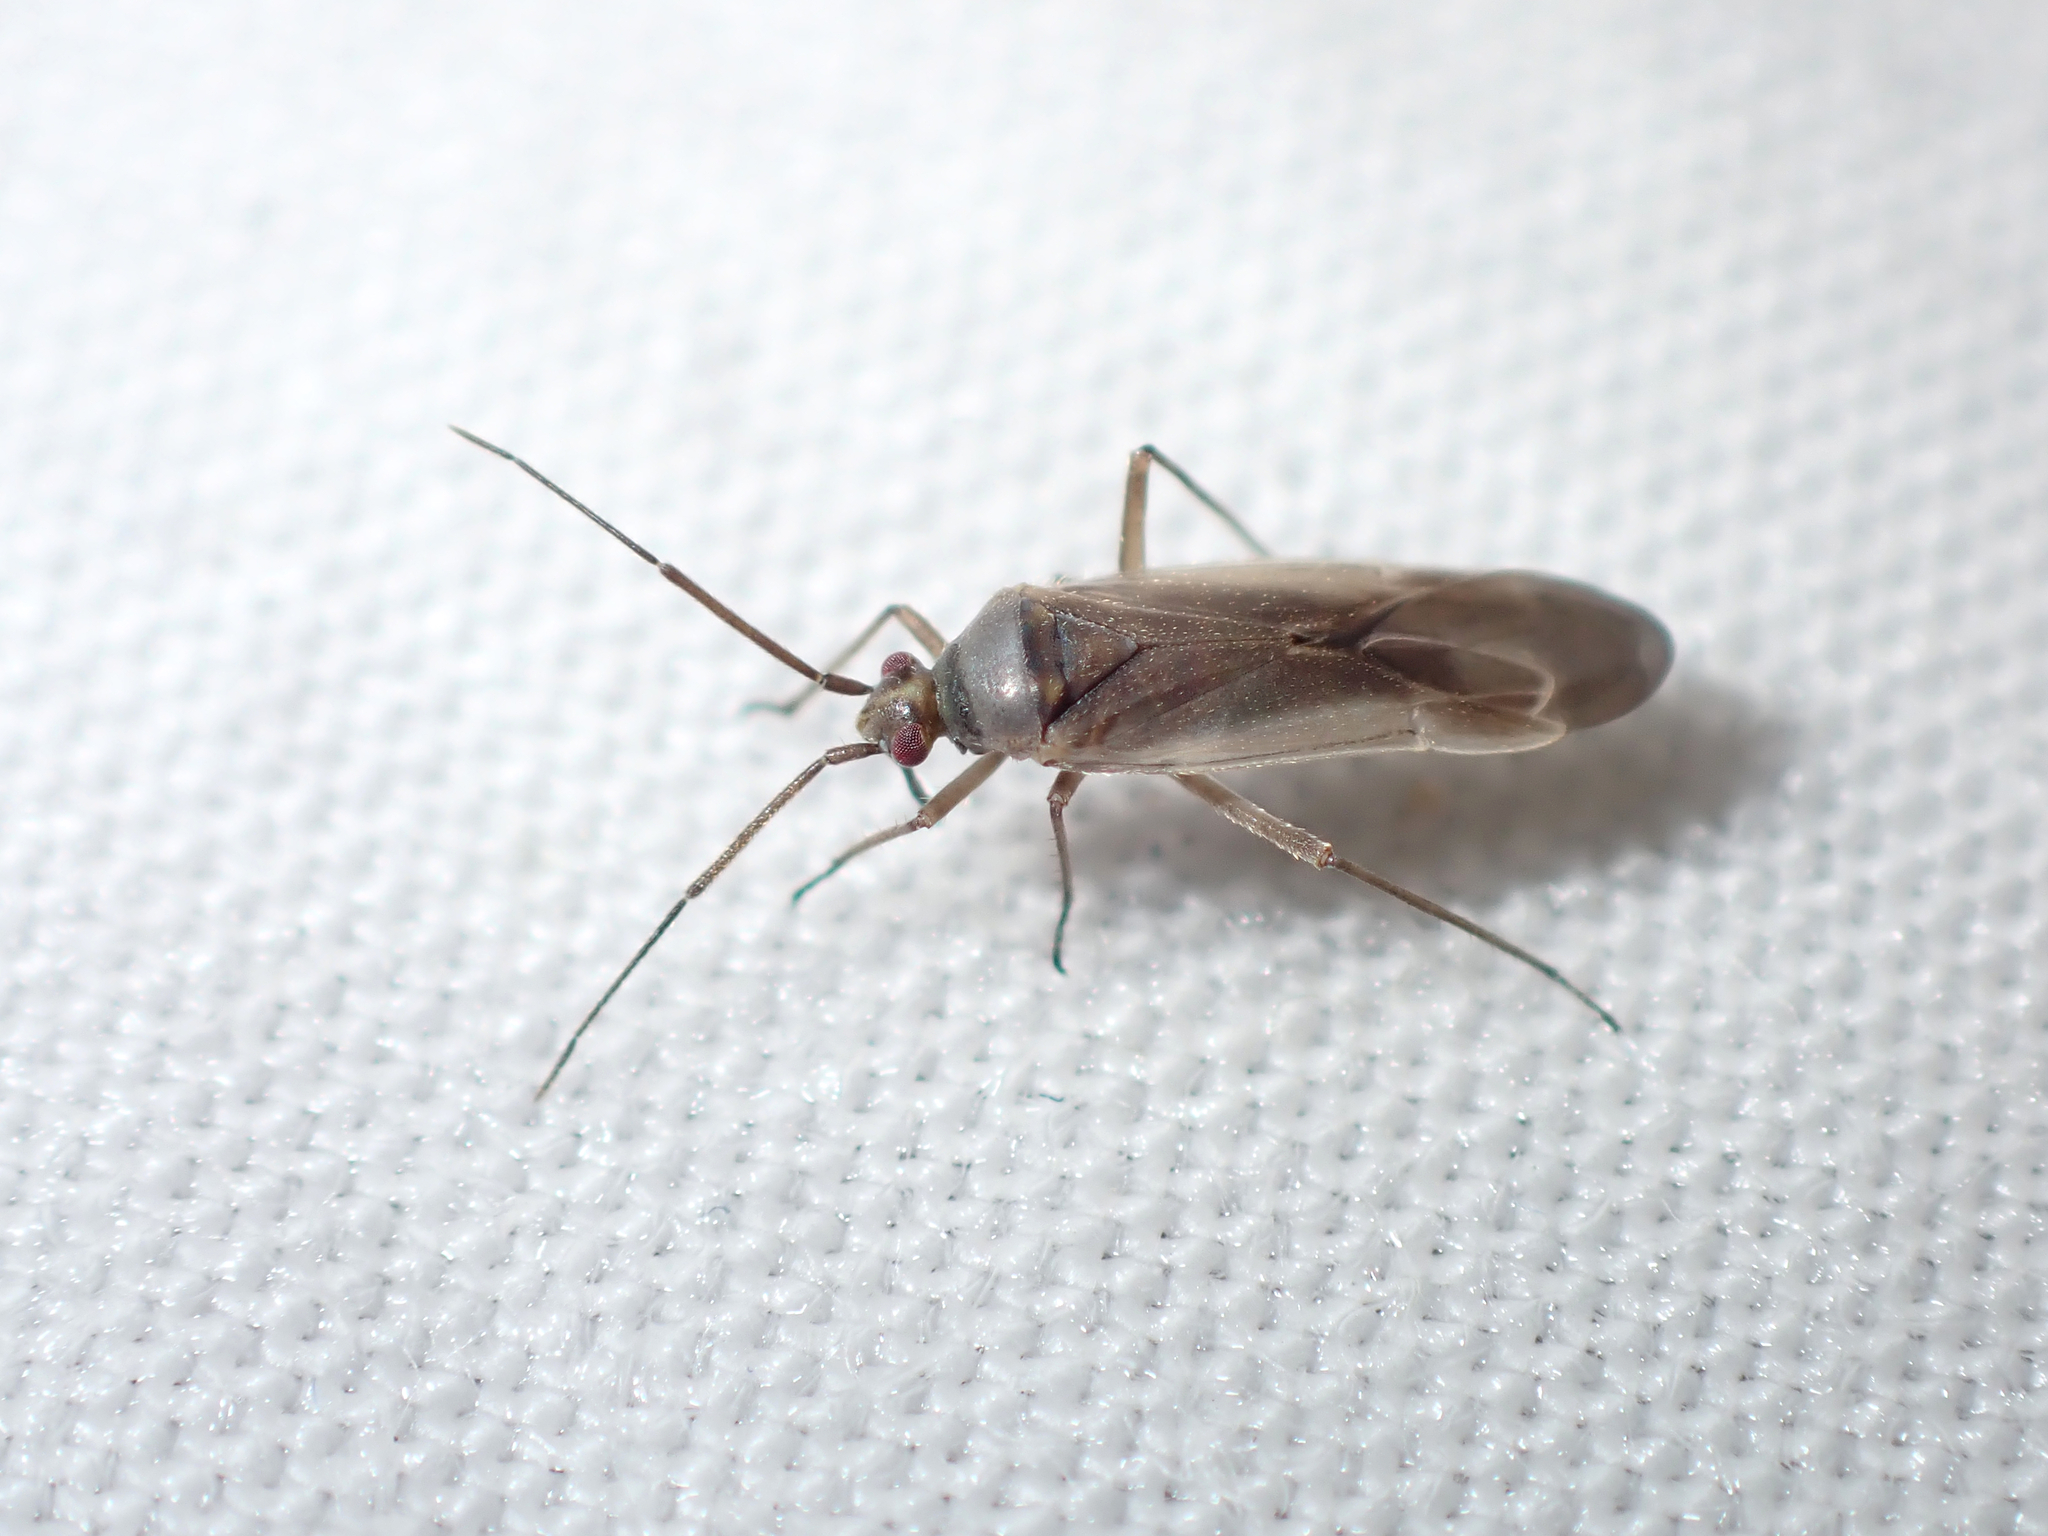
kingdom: Animalia
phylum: Arthropoda
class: Insecta
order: Hemiptera
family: Miridae
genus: Lopus
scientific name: Lopus decolor
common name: Plant bug
